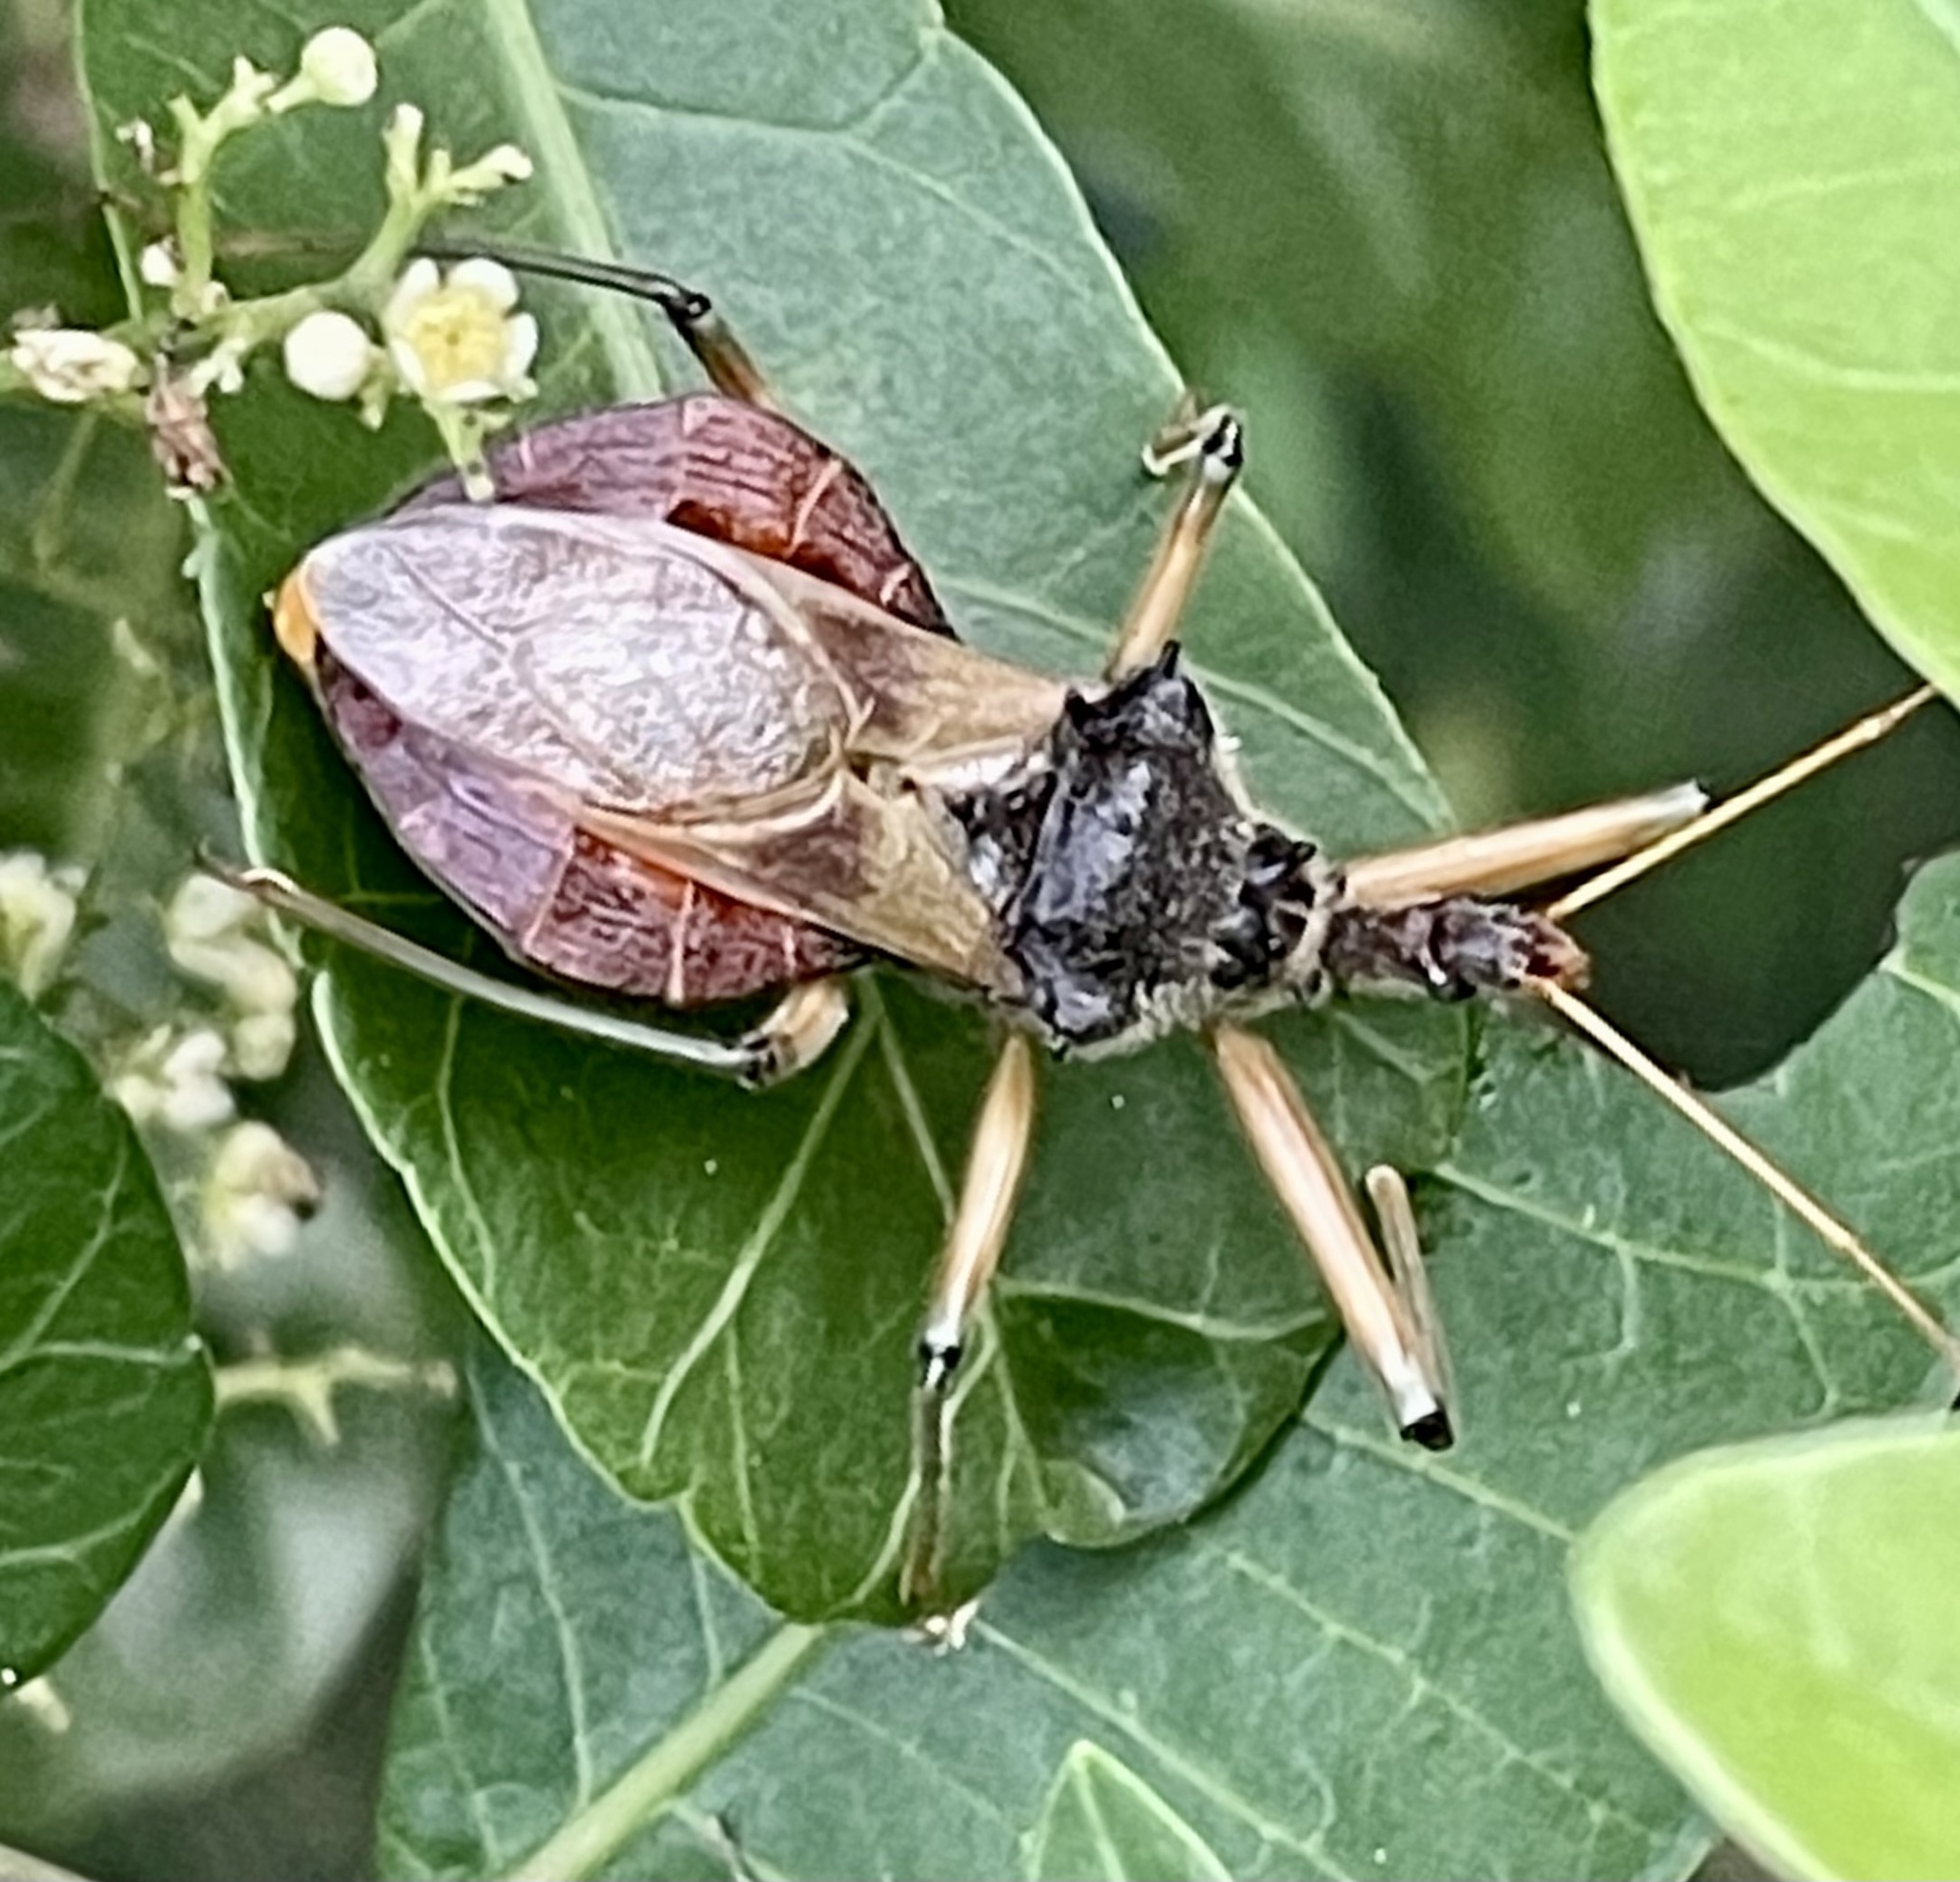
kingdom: Animalia
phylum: Arthropoda
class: Insecta
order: Hemiptera
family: Reduviidae
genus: Pristhesancus
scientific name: Pristhesancus plagipennis
